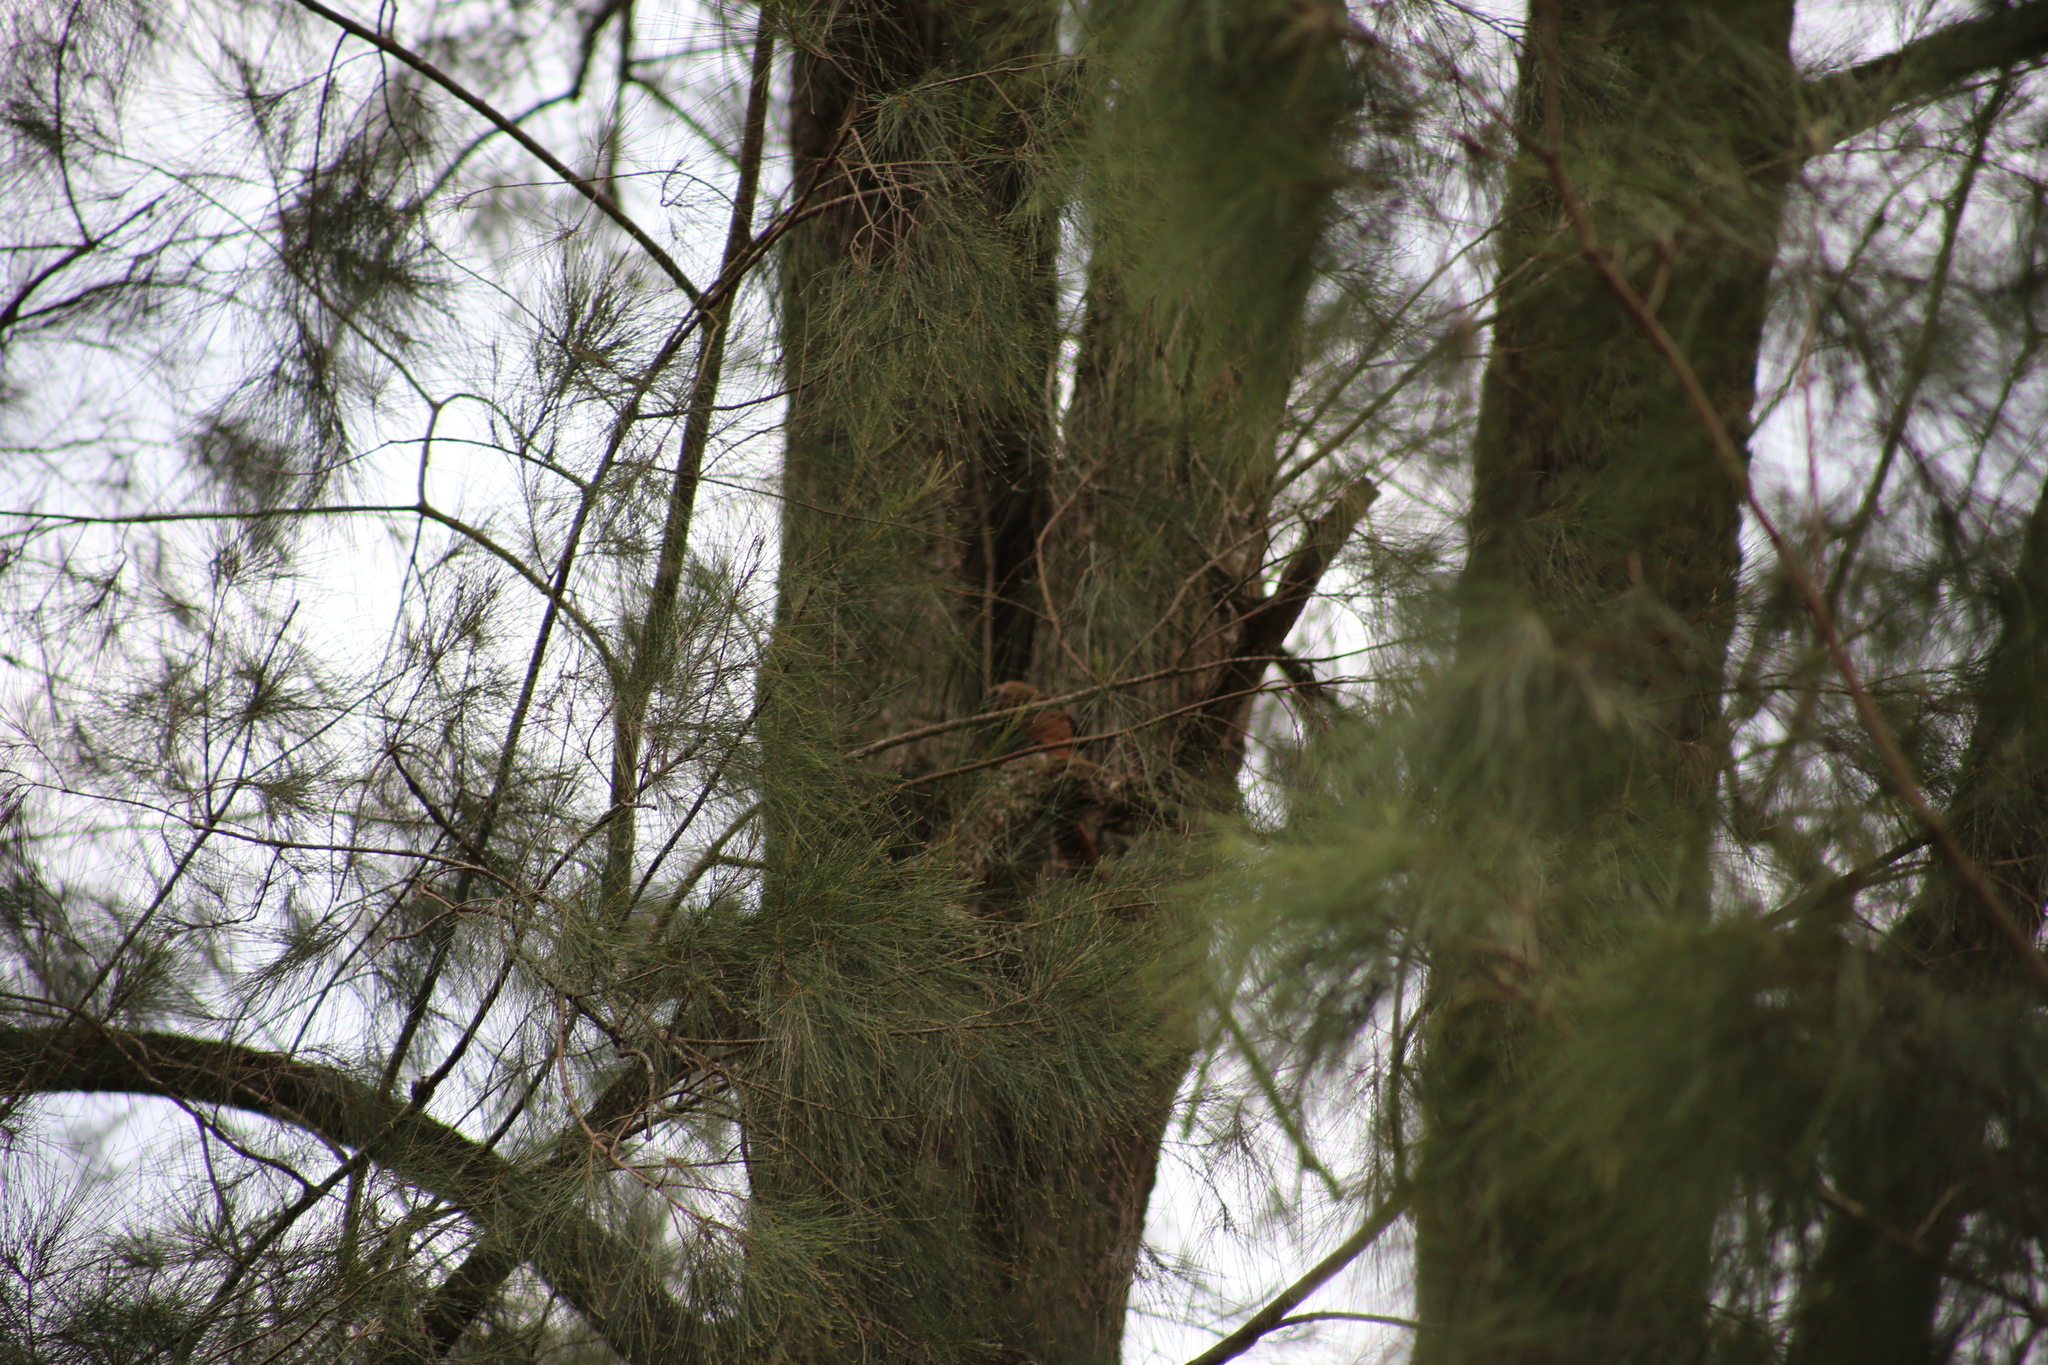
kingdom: Animalia
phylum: Chordata
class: Aves
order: Columbiformes
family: Columbidae
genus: Macropygia
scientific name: Macropygia phasianella
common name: Brown cuckoo-dove
